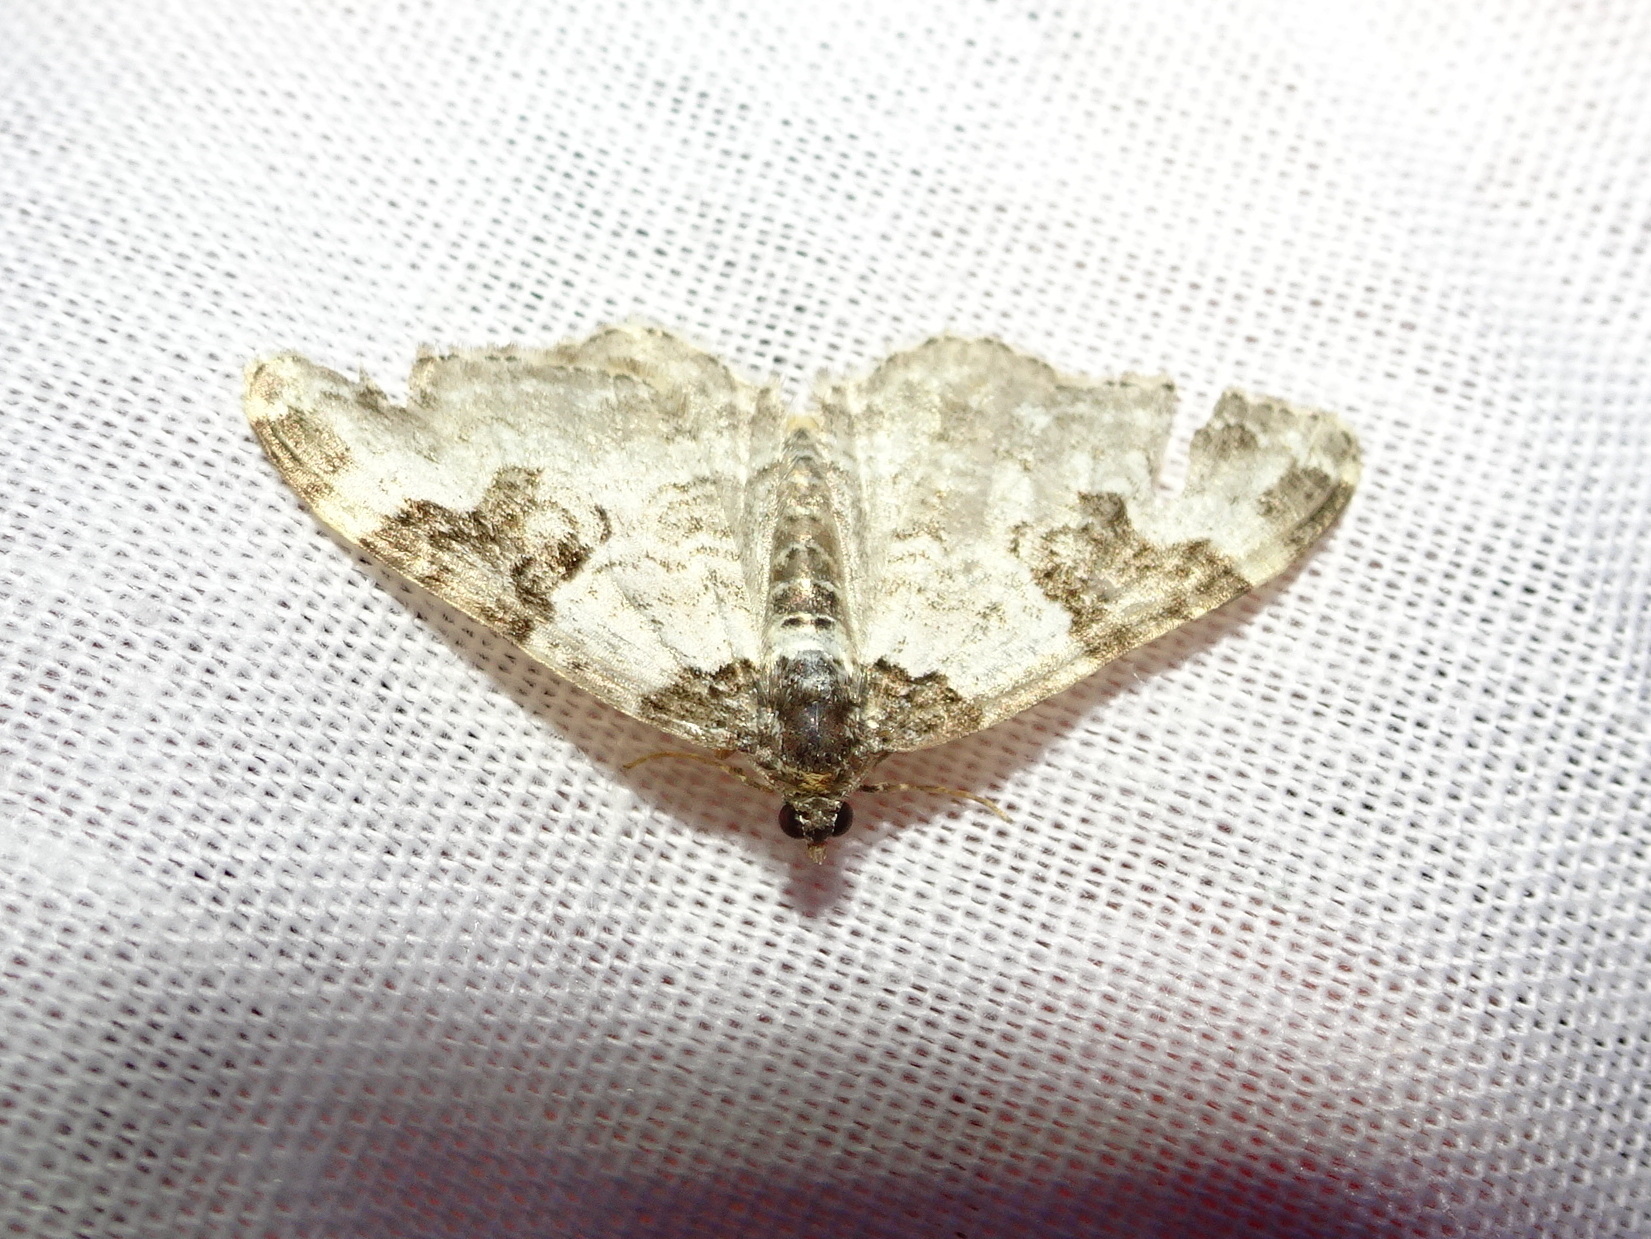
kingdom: Animalia
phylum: Arthropoda
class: Insecta
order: Lepidoptera
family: Geometridae
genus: Xanthorhoe
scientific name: Xanthorhoe fluctuata
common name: Garden carpet
